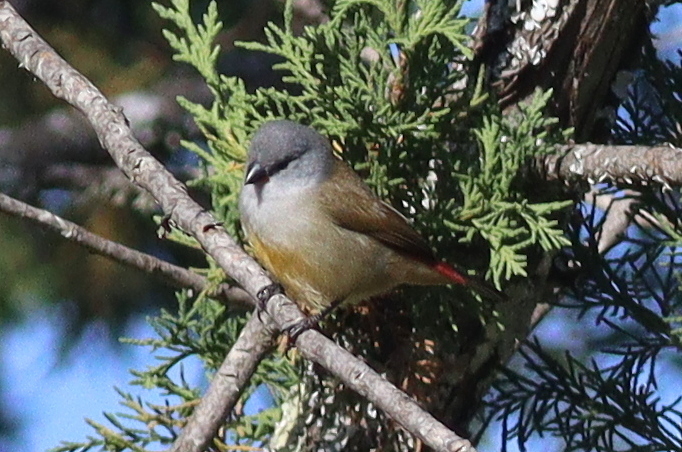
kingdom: Animalia
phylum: Chordata
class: Aves
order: Passeriformes
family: Estrildidae
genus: Coccopygia
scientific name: Coccopygia quartinia
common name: Yellow-bellied waxbill
